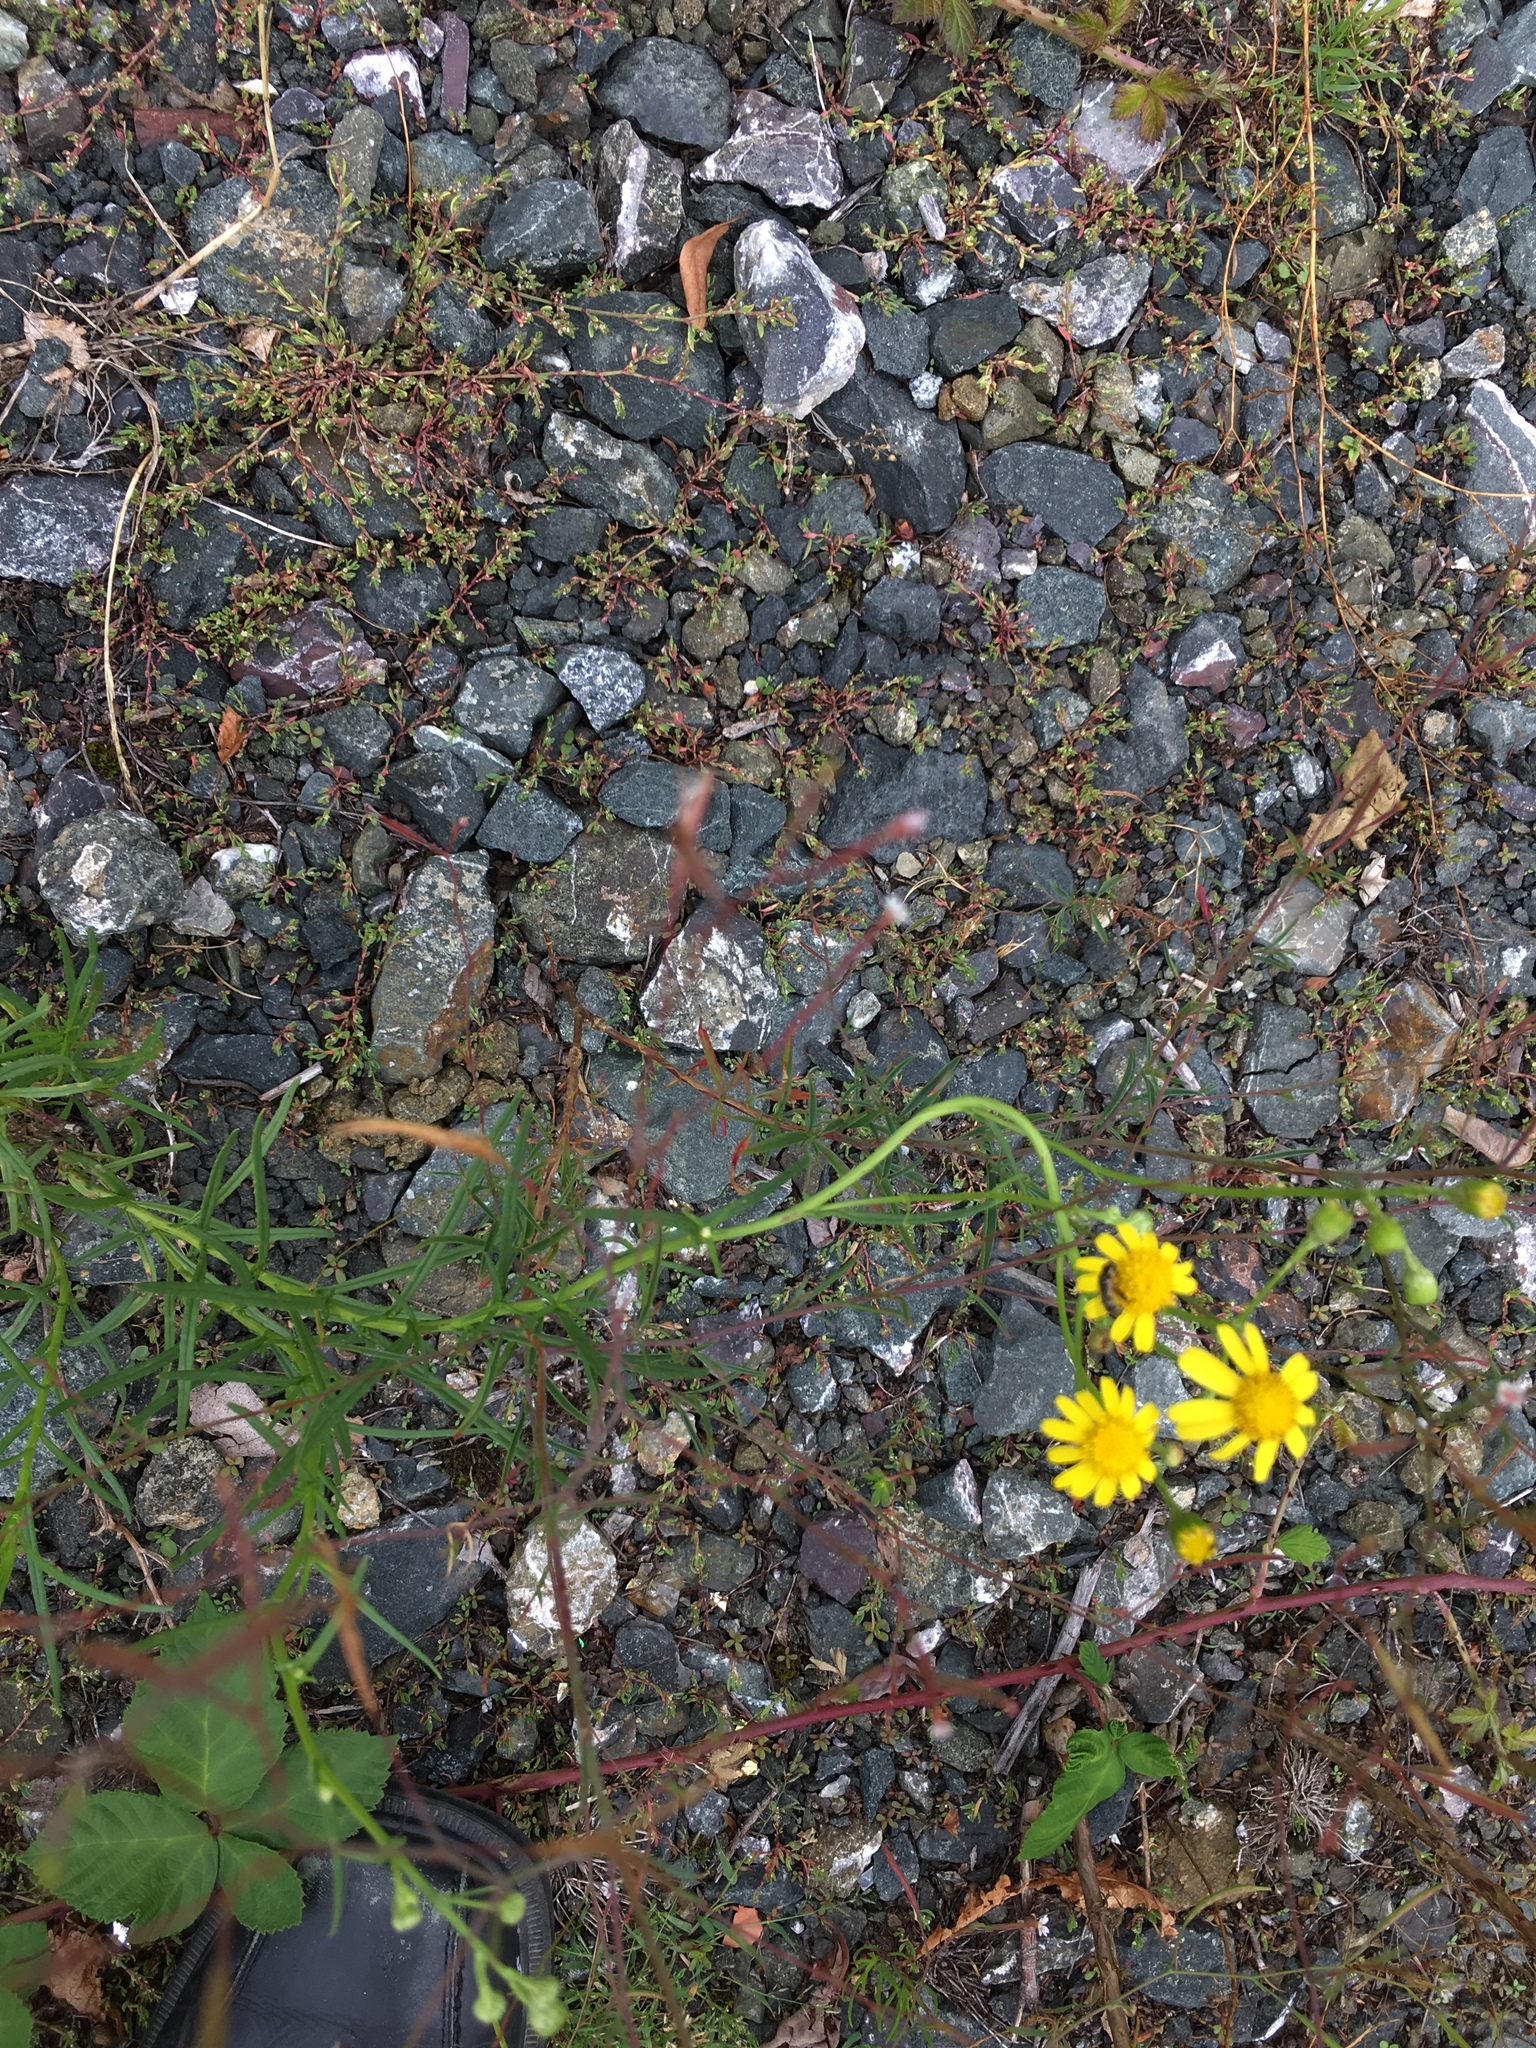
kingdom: Plantae
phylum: Tracheophyta
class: Magnoliopsida
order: Asterales
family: Asteraceae
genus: Senecio
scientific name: Senecio inaequidens
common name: Narrow-leaved ragwort
